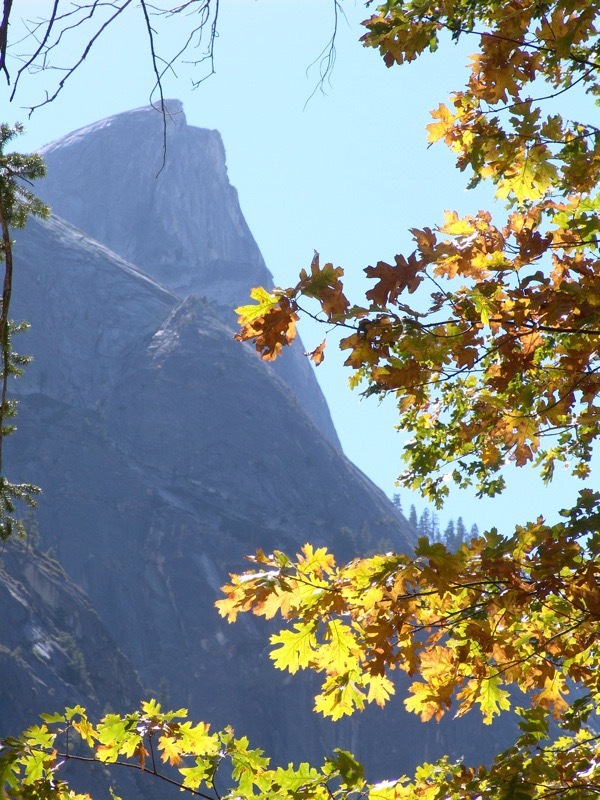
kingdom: Plantae
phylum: Tracheophyta
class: Magnoliopsida
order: Fagales
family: Fagaceae
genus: Quercus
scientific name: Quercus kelloggii
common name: California black oak
